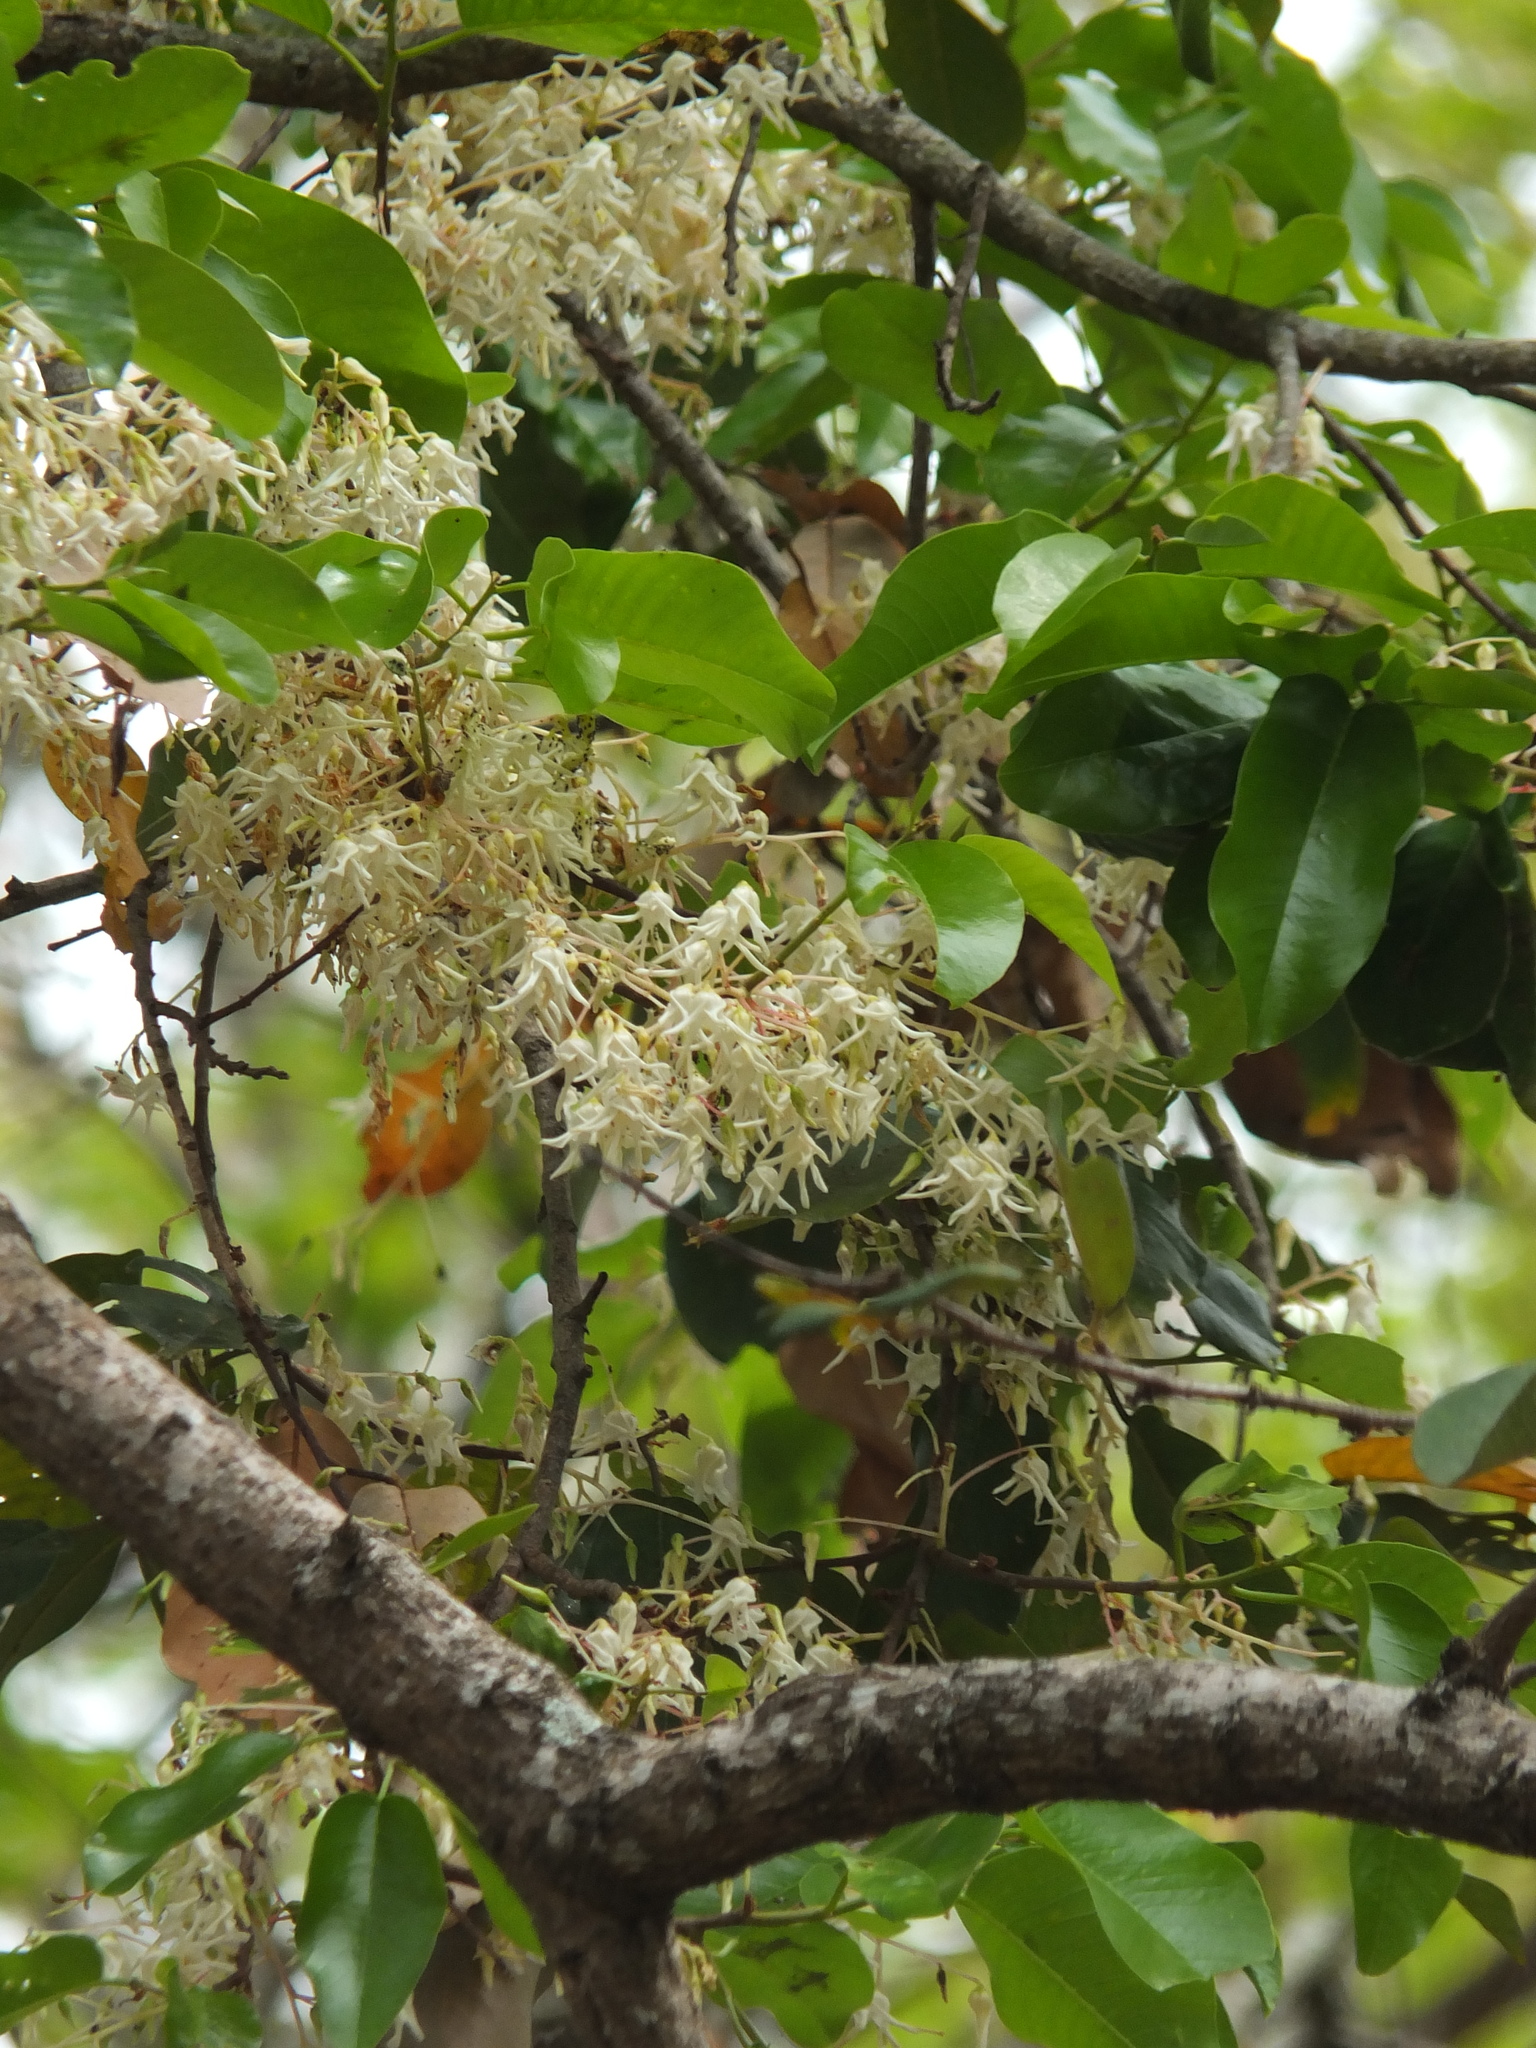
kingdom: Plantae
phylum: Tracheophyta
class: Magnoliopsida
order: Malvales
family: Dipterocarpaceae
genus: Anthoshorea
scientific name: Anthoshorea roxburghii
